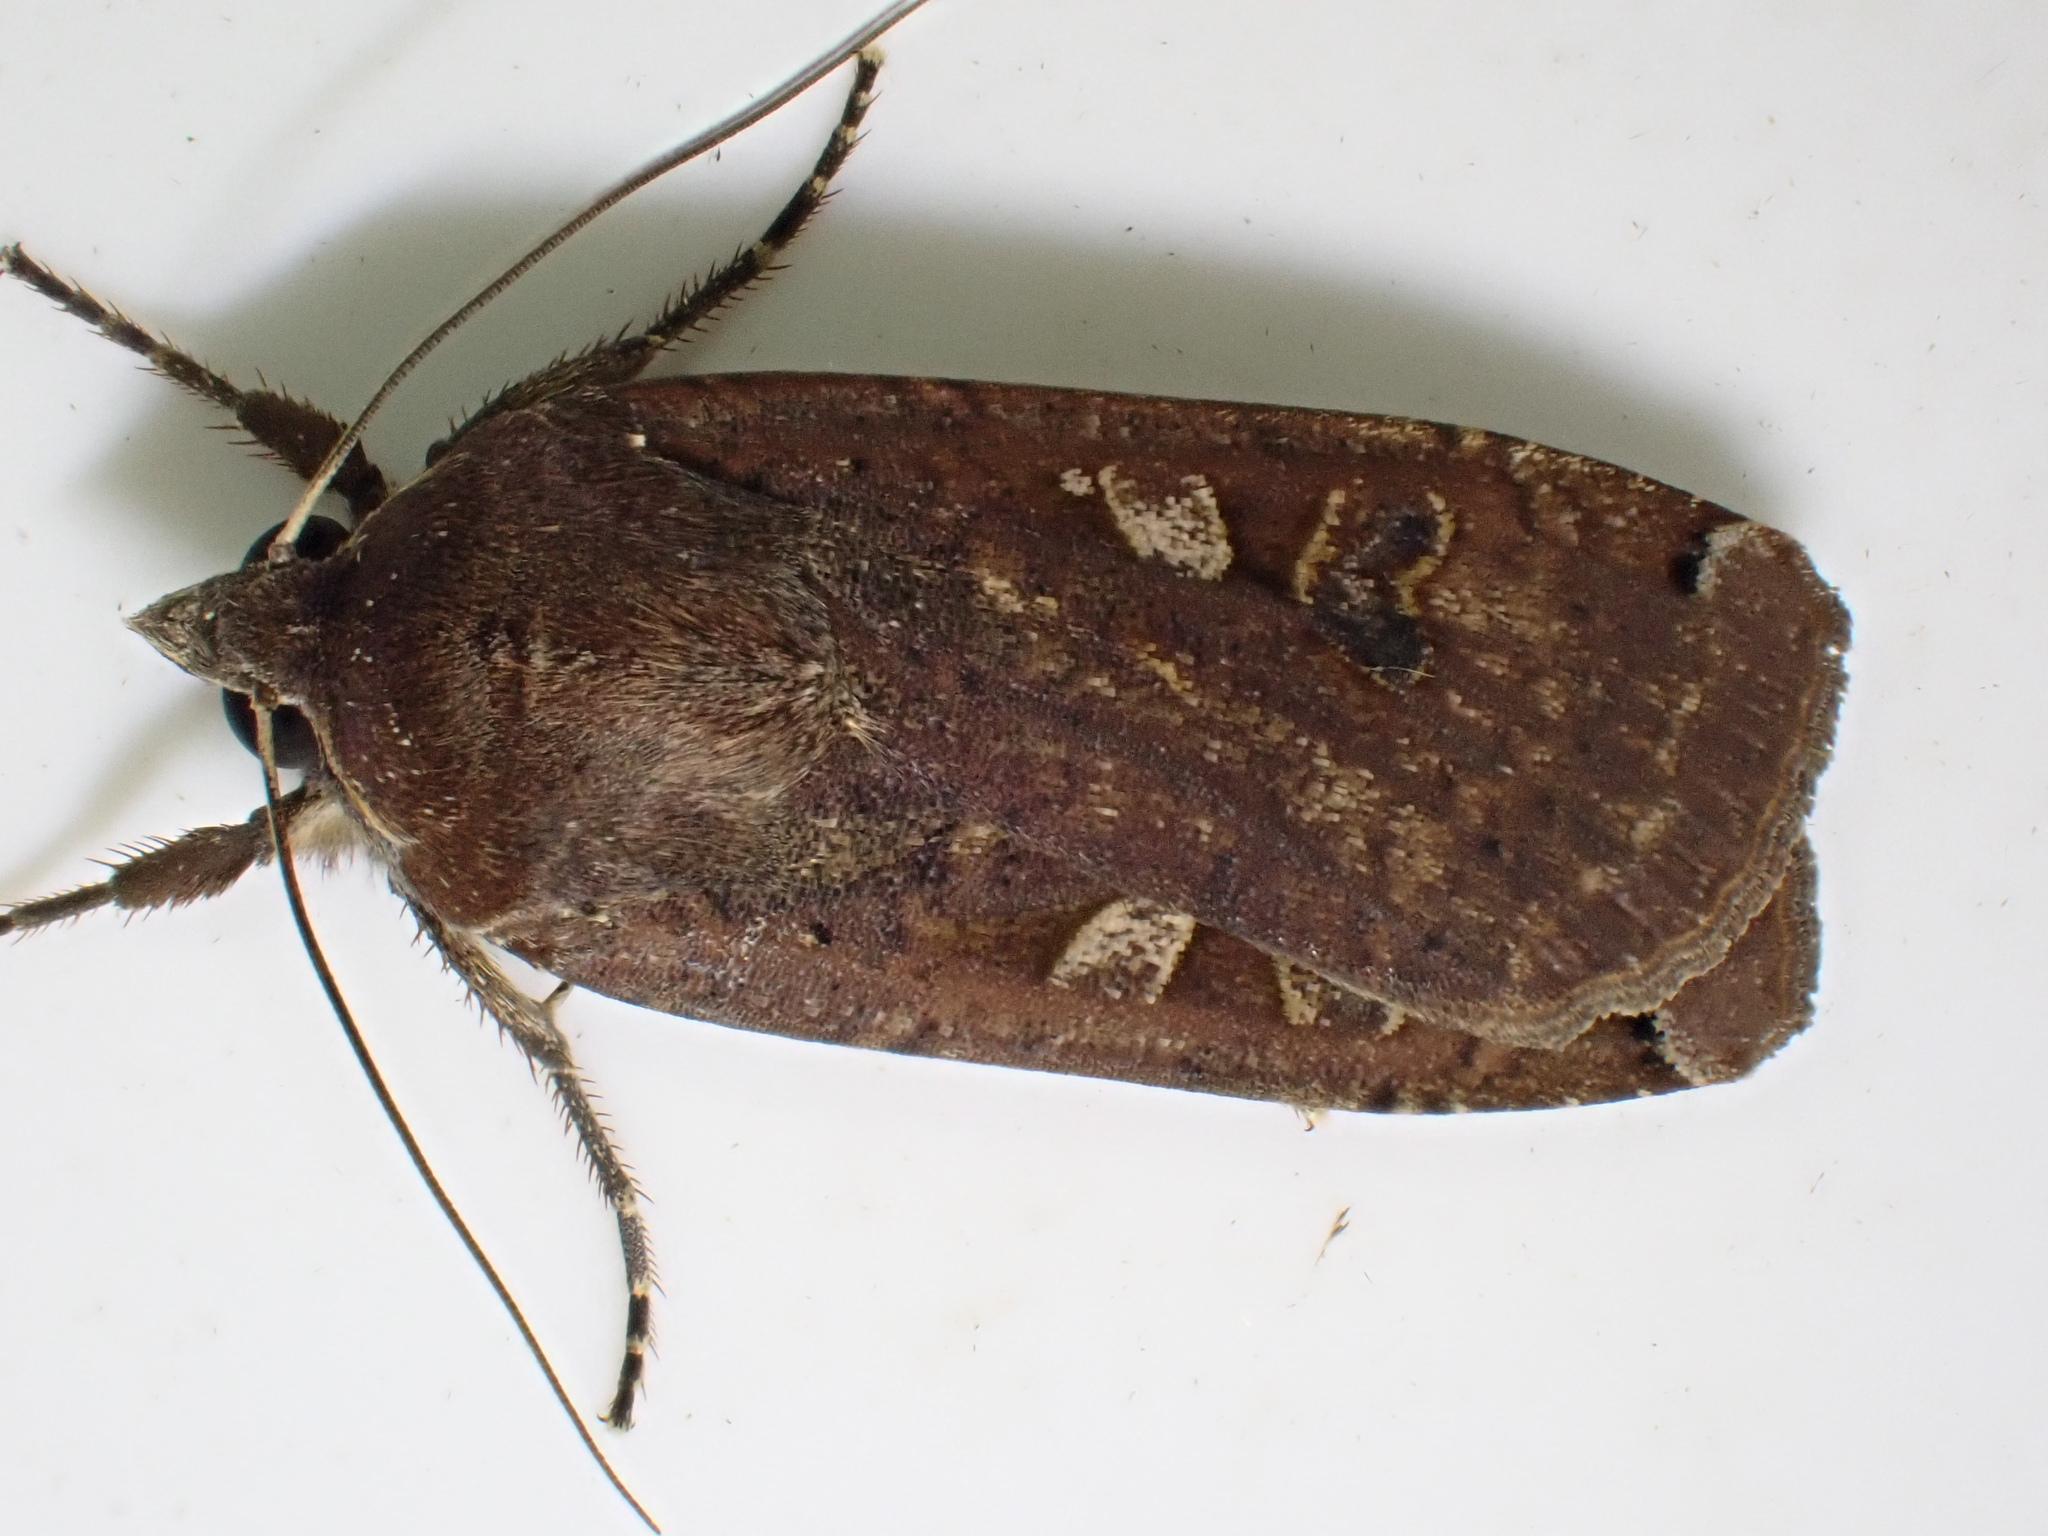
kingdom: Animalia
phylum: Arthropoda
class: Insecta
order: Lepidoptera
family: Noctuidae
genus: Noctua
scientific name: Noctua pronuba
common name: Large yellow underwing
